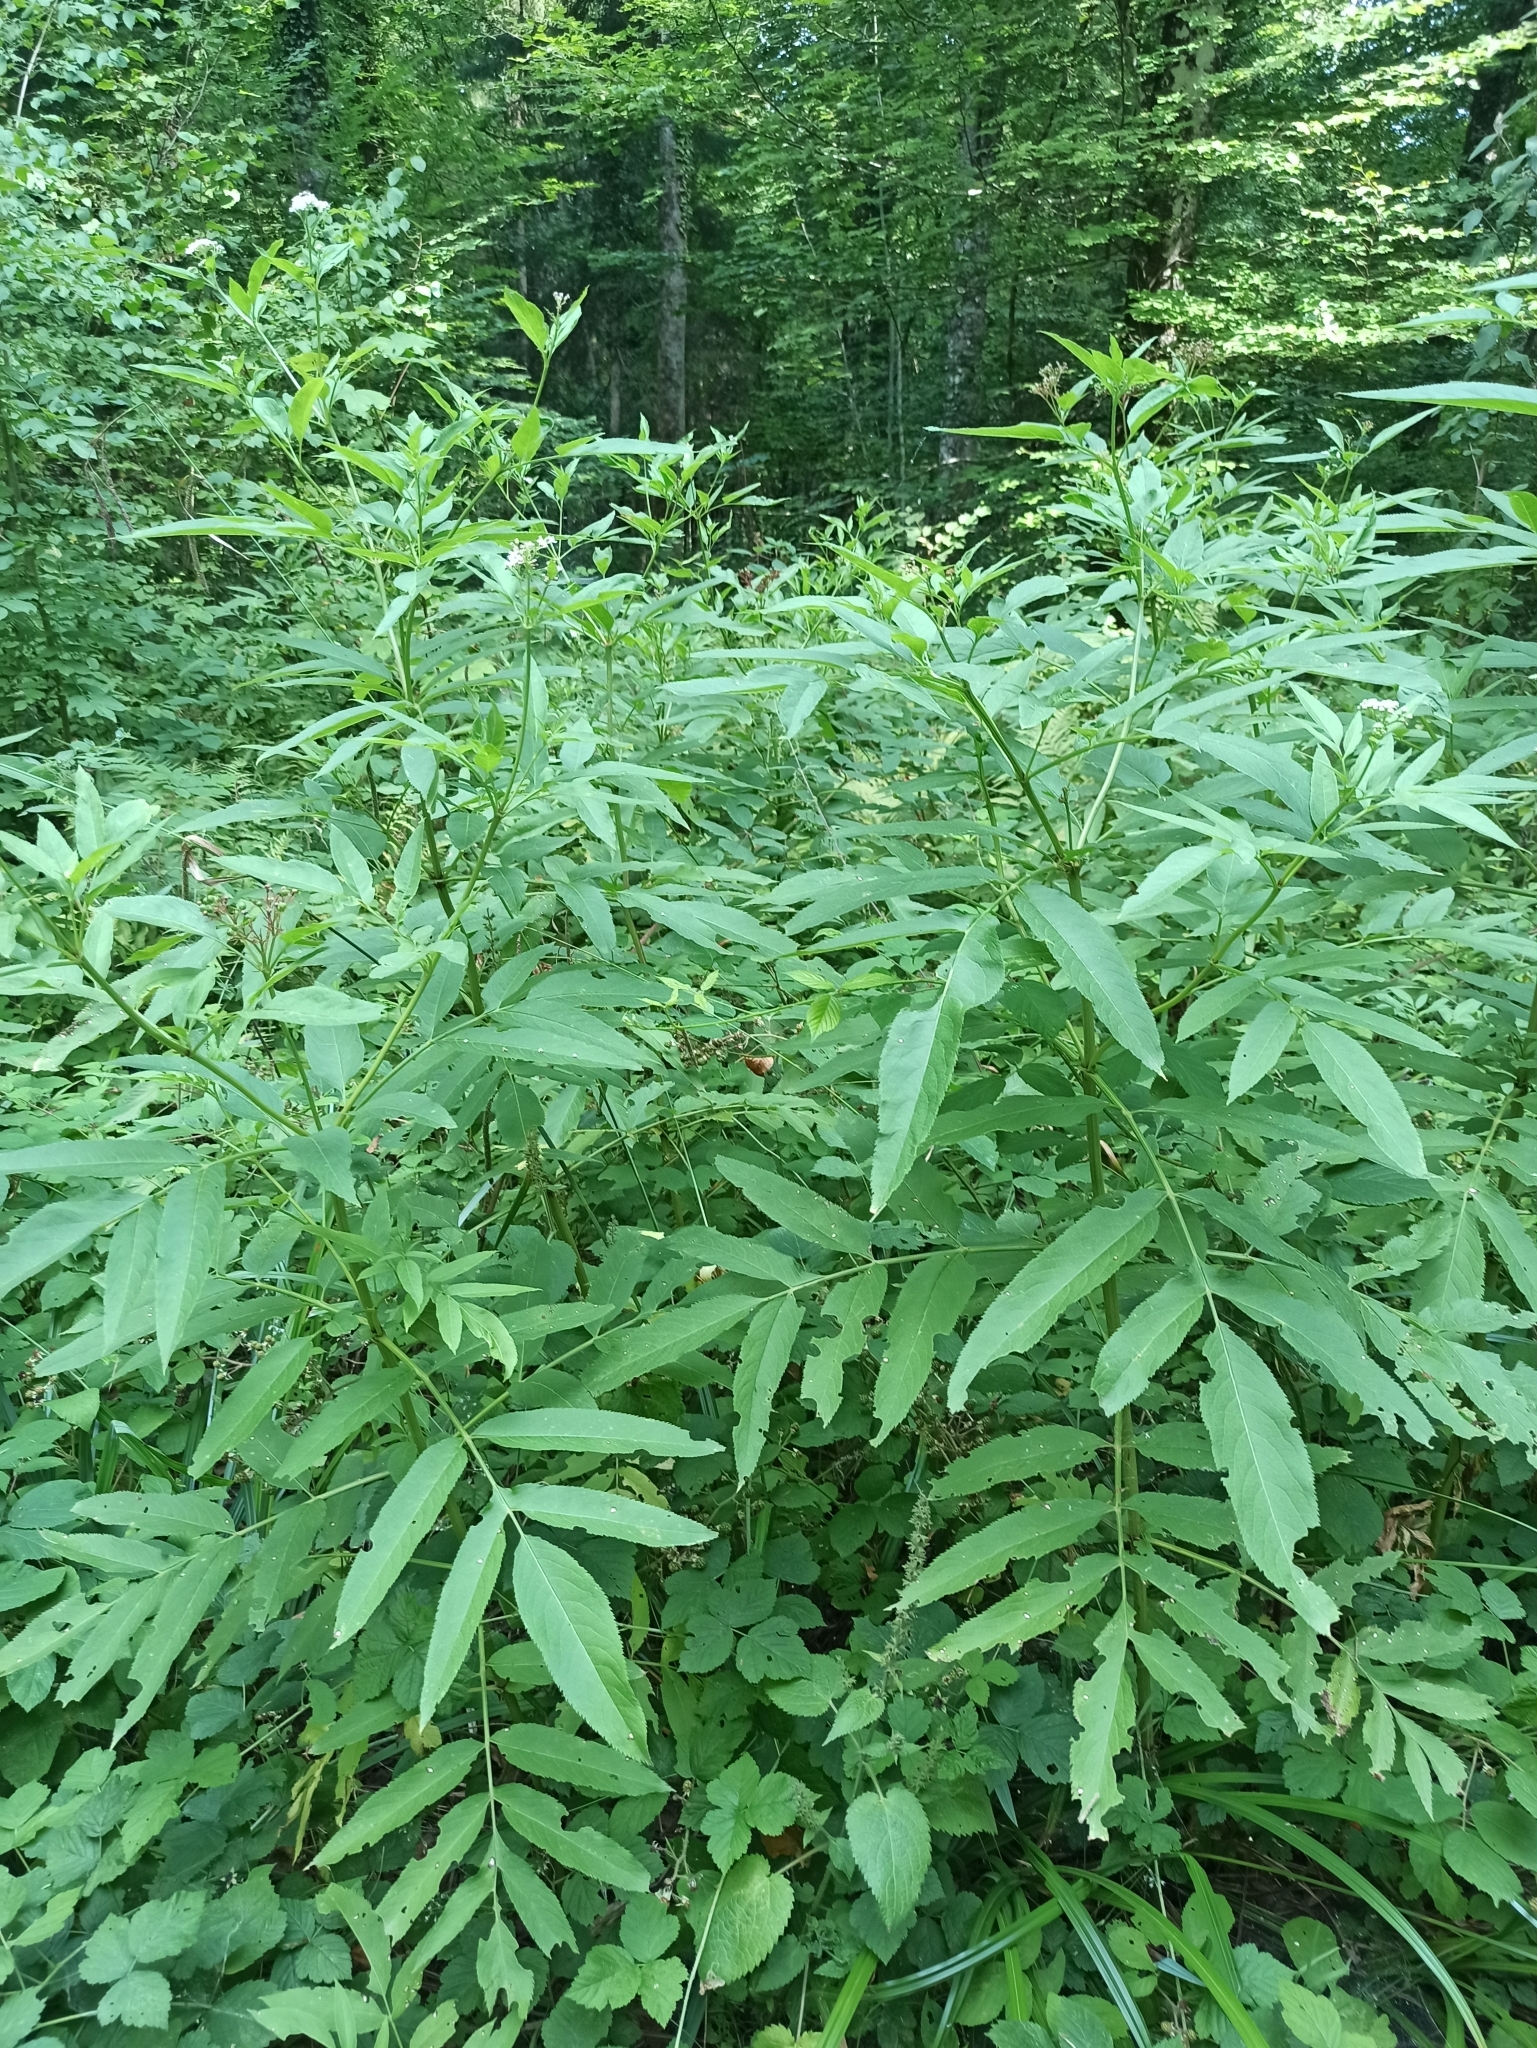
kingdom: Plantae
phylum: Tracheophyta
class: Magnoliopsida
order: Dipsacales
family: Viburnaceae
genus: Sambucus
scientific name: Sambucus ebulus
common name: Dwarf elder
